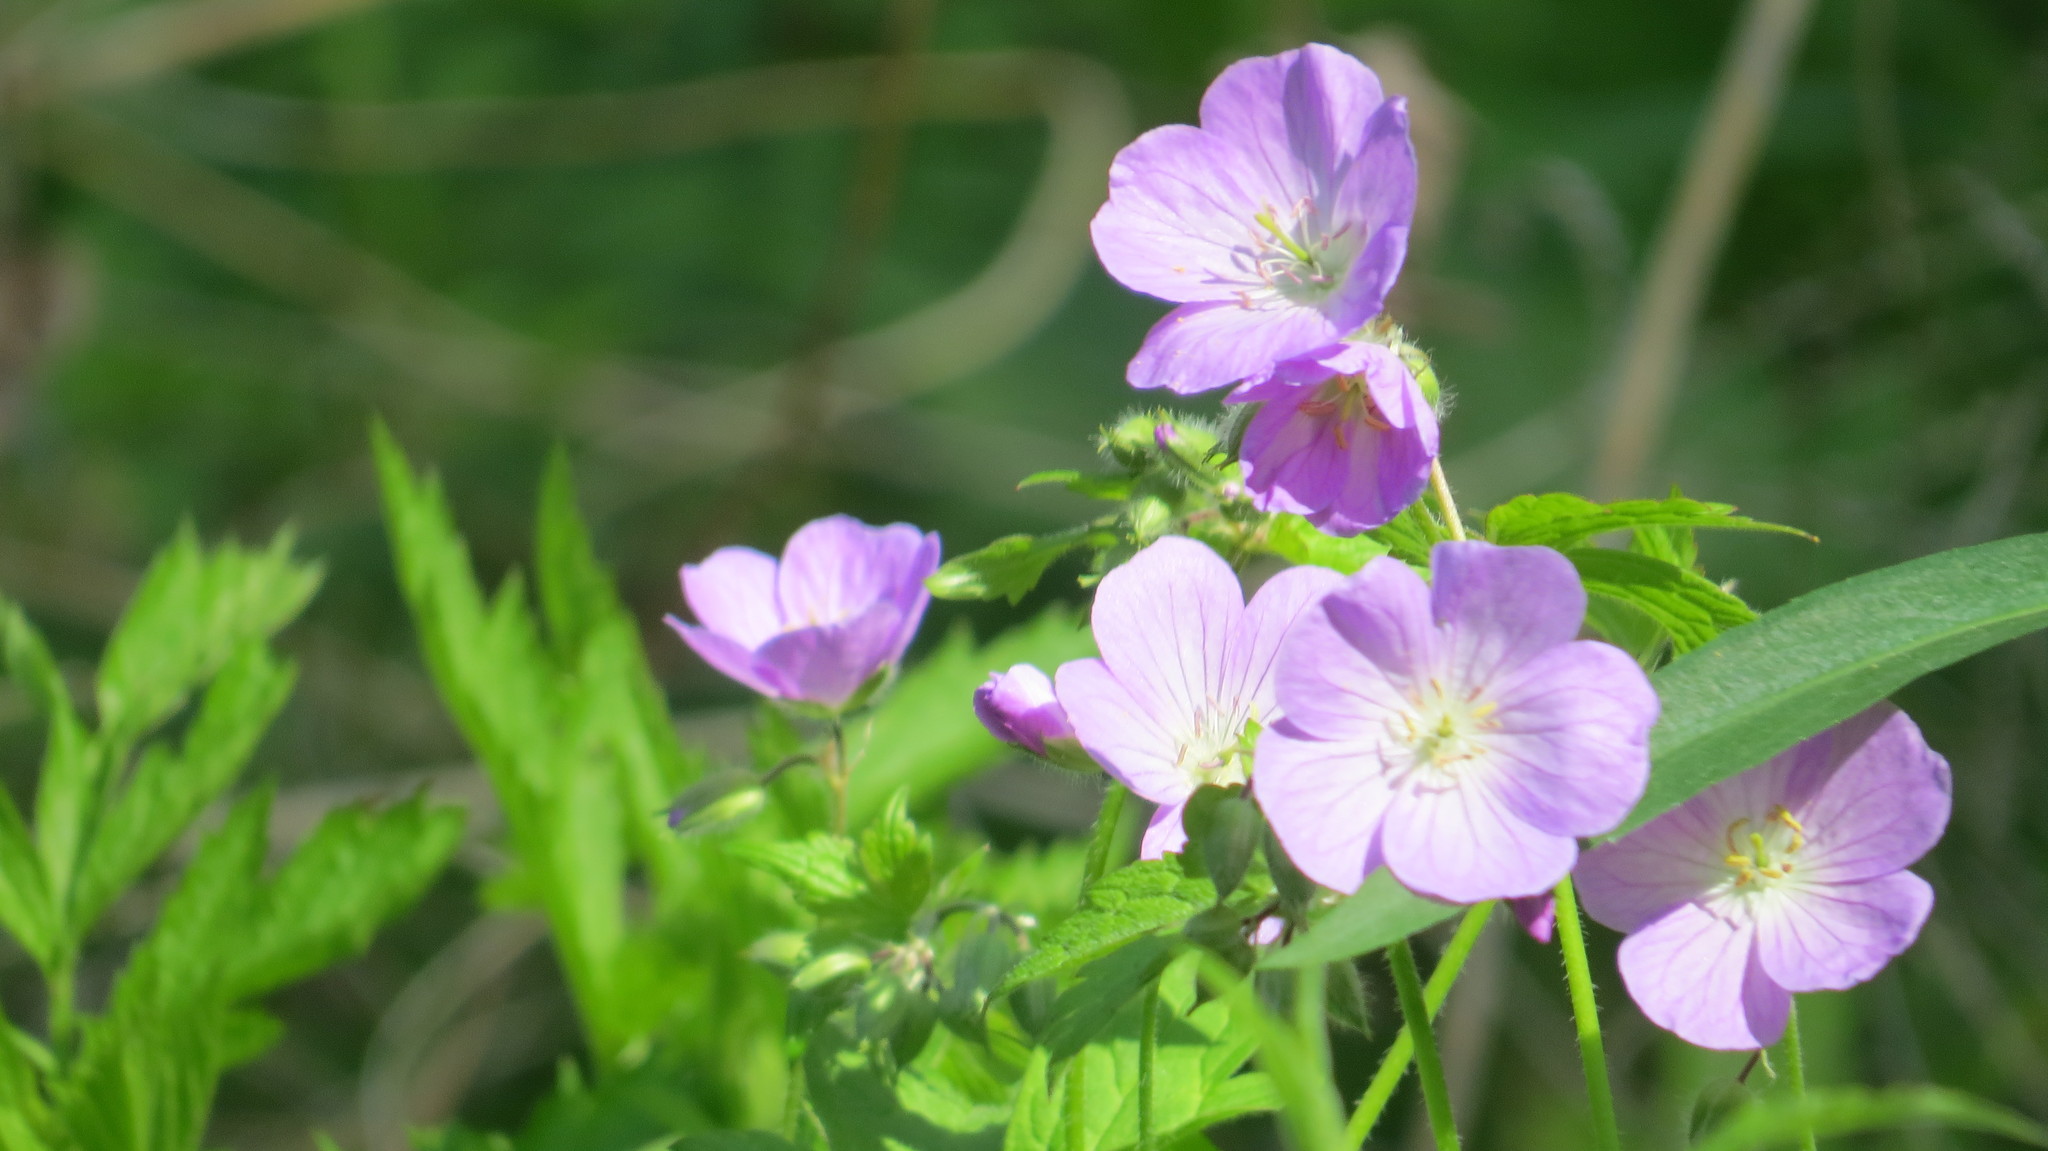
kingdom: Plantae
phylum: Tracheophyta
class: Magnoliopsida
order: Geraniales
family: Geraniaceae
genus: Geranium
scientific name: Geranium maculatum
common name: Spotted geranium
